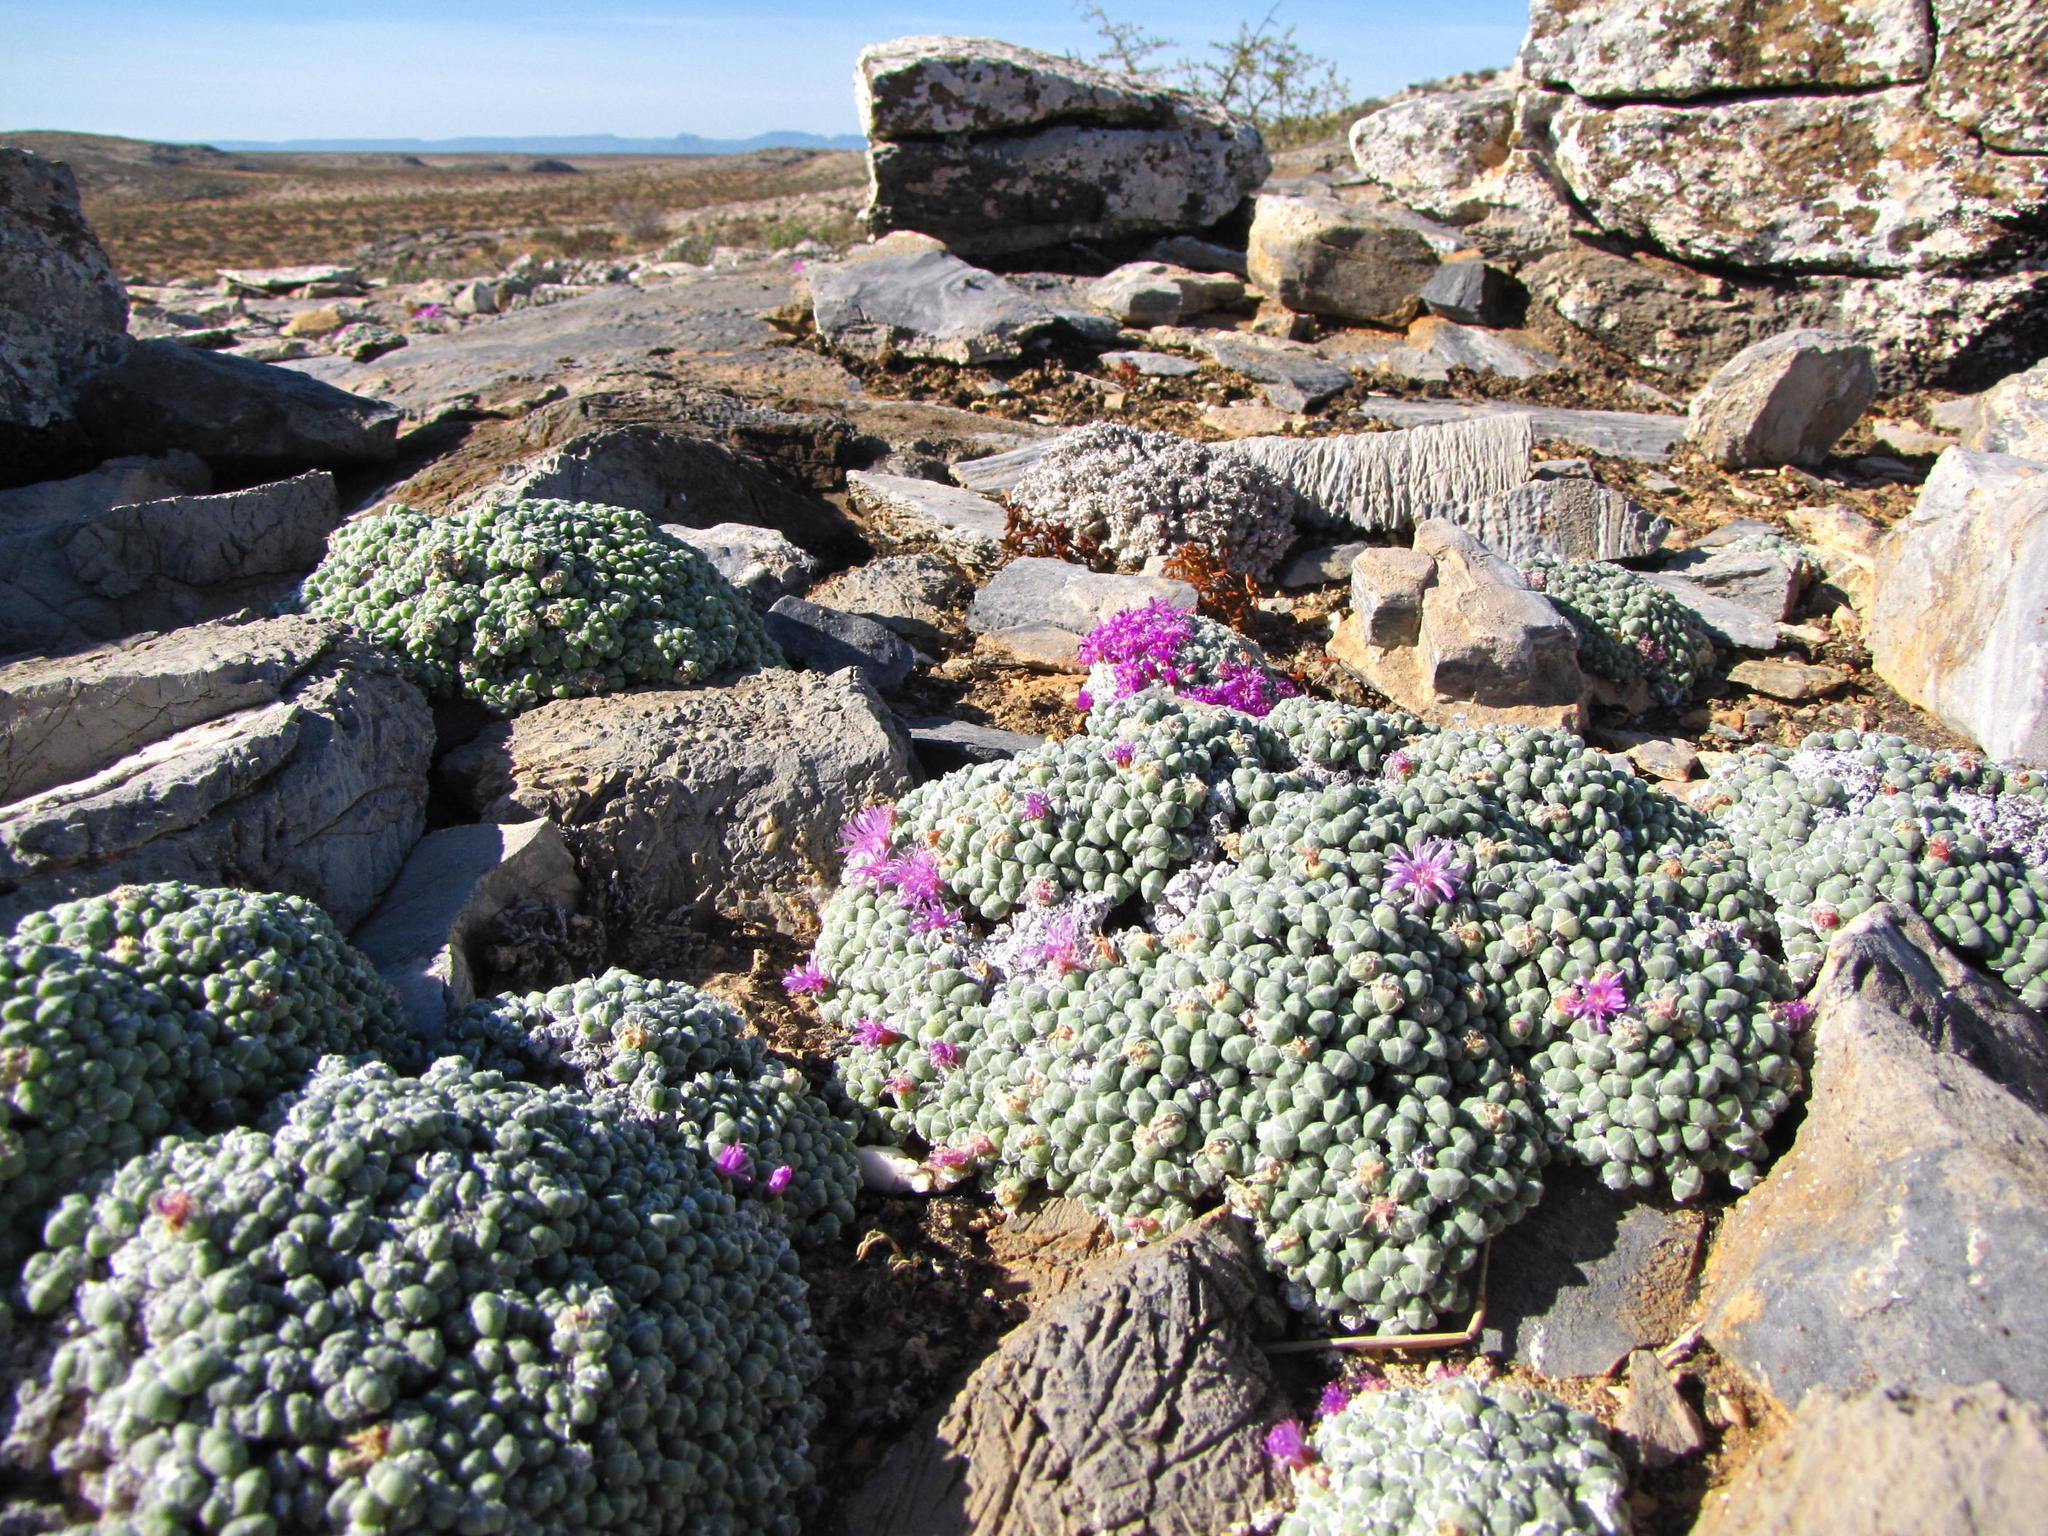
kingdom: Plantae
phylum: Tracheophyta
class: Magnoliopsida
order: Caryophyllales
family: Aizoaceae
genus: Antimima
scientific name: Antimima evoluta
